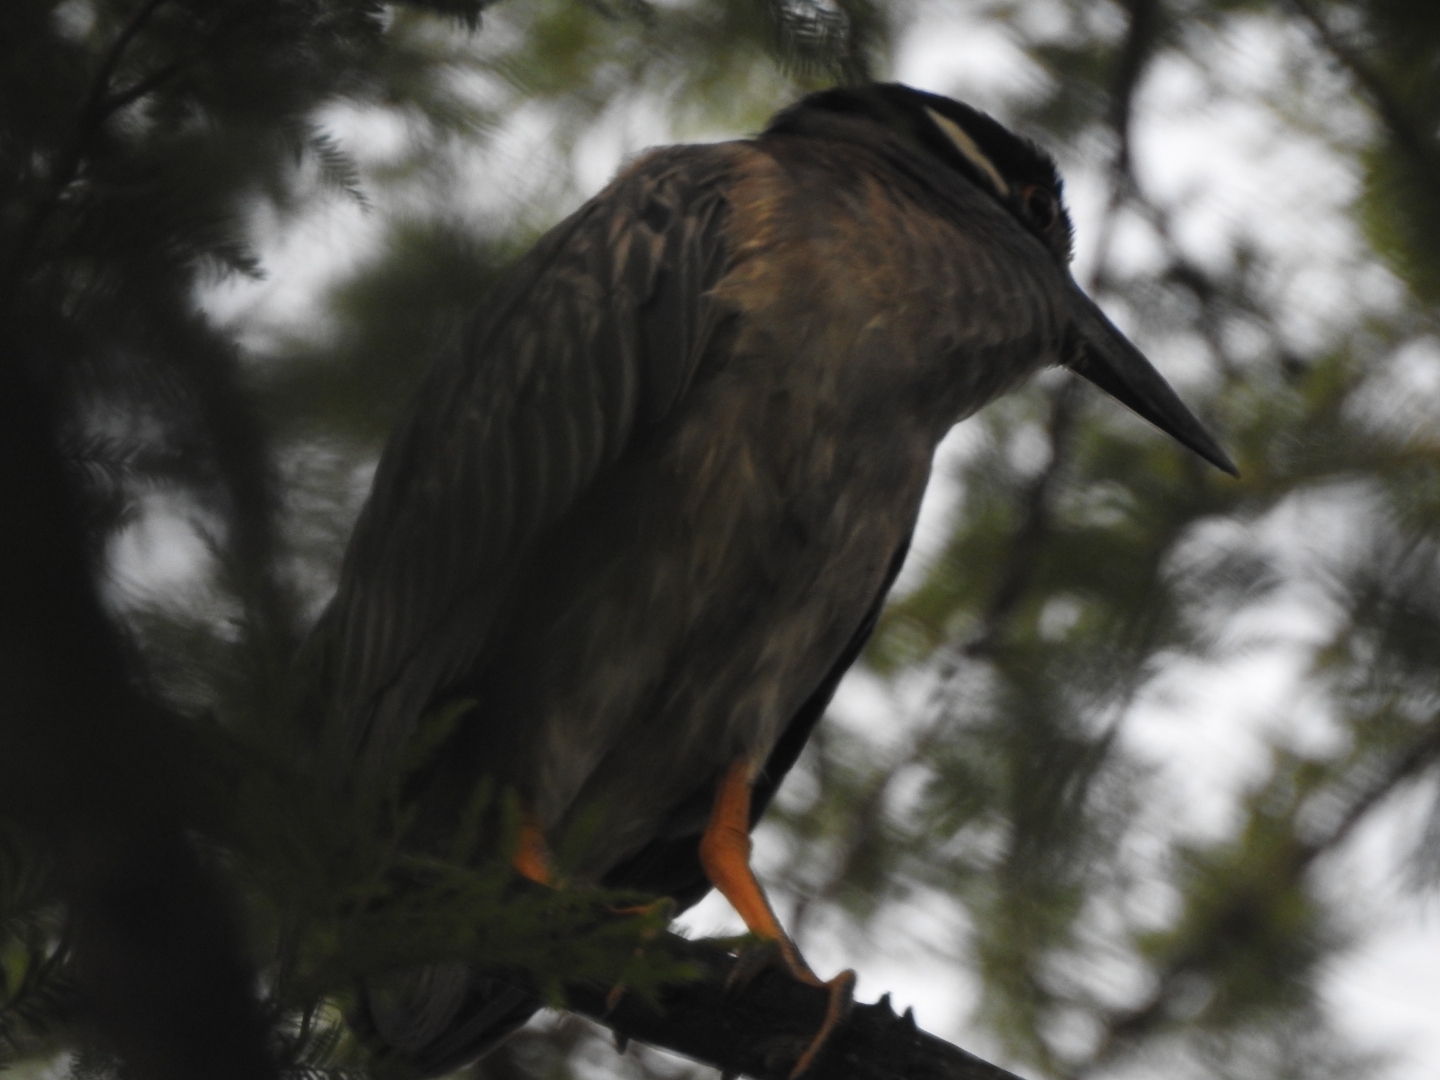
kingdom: Animalia
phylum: Chordata
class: Aves
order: Pelecaniformes
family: Ardeidae
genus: Nyctanassa
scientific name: Nyctanassa violacea
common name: Yellow-crowned night heron
